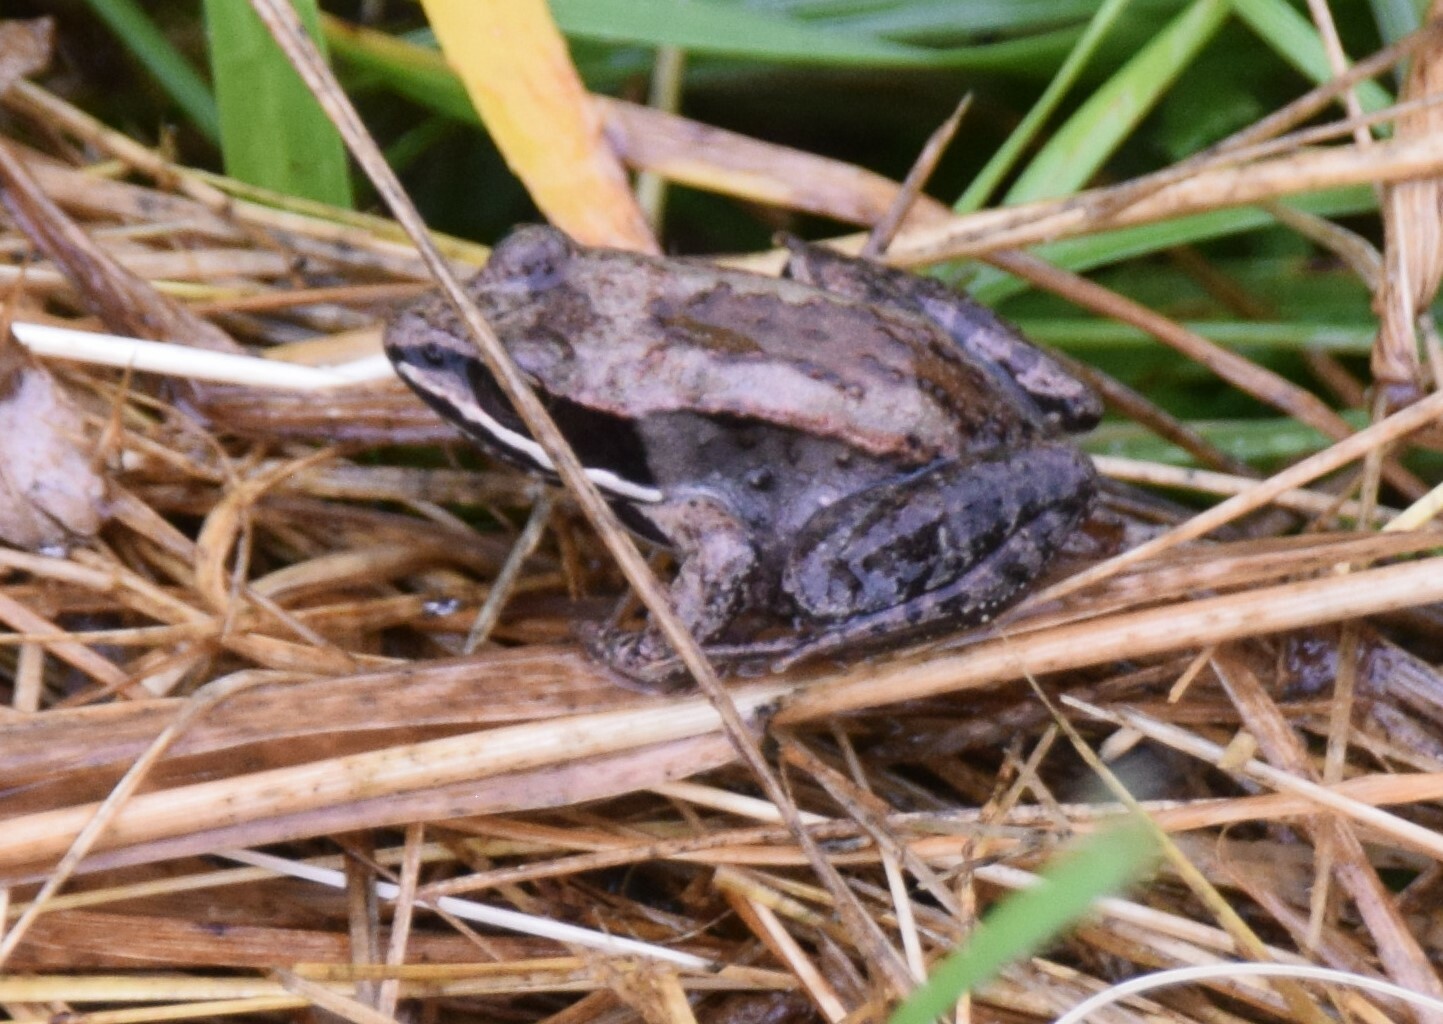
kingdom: Animalia
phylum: Chordata
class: Amphibia
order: Anura
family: Ranidae
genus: Lithobates
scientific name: Lithobates sylvaticus
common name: Wood frog
